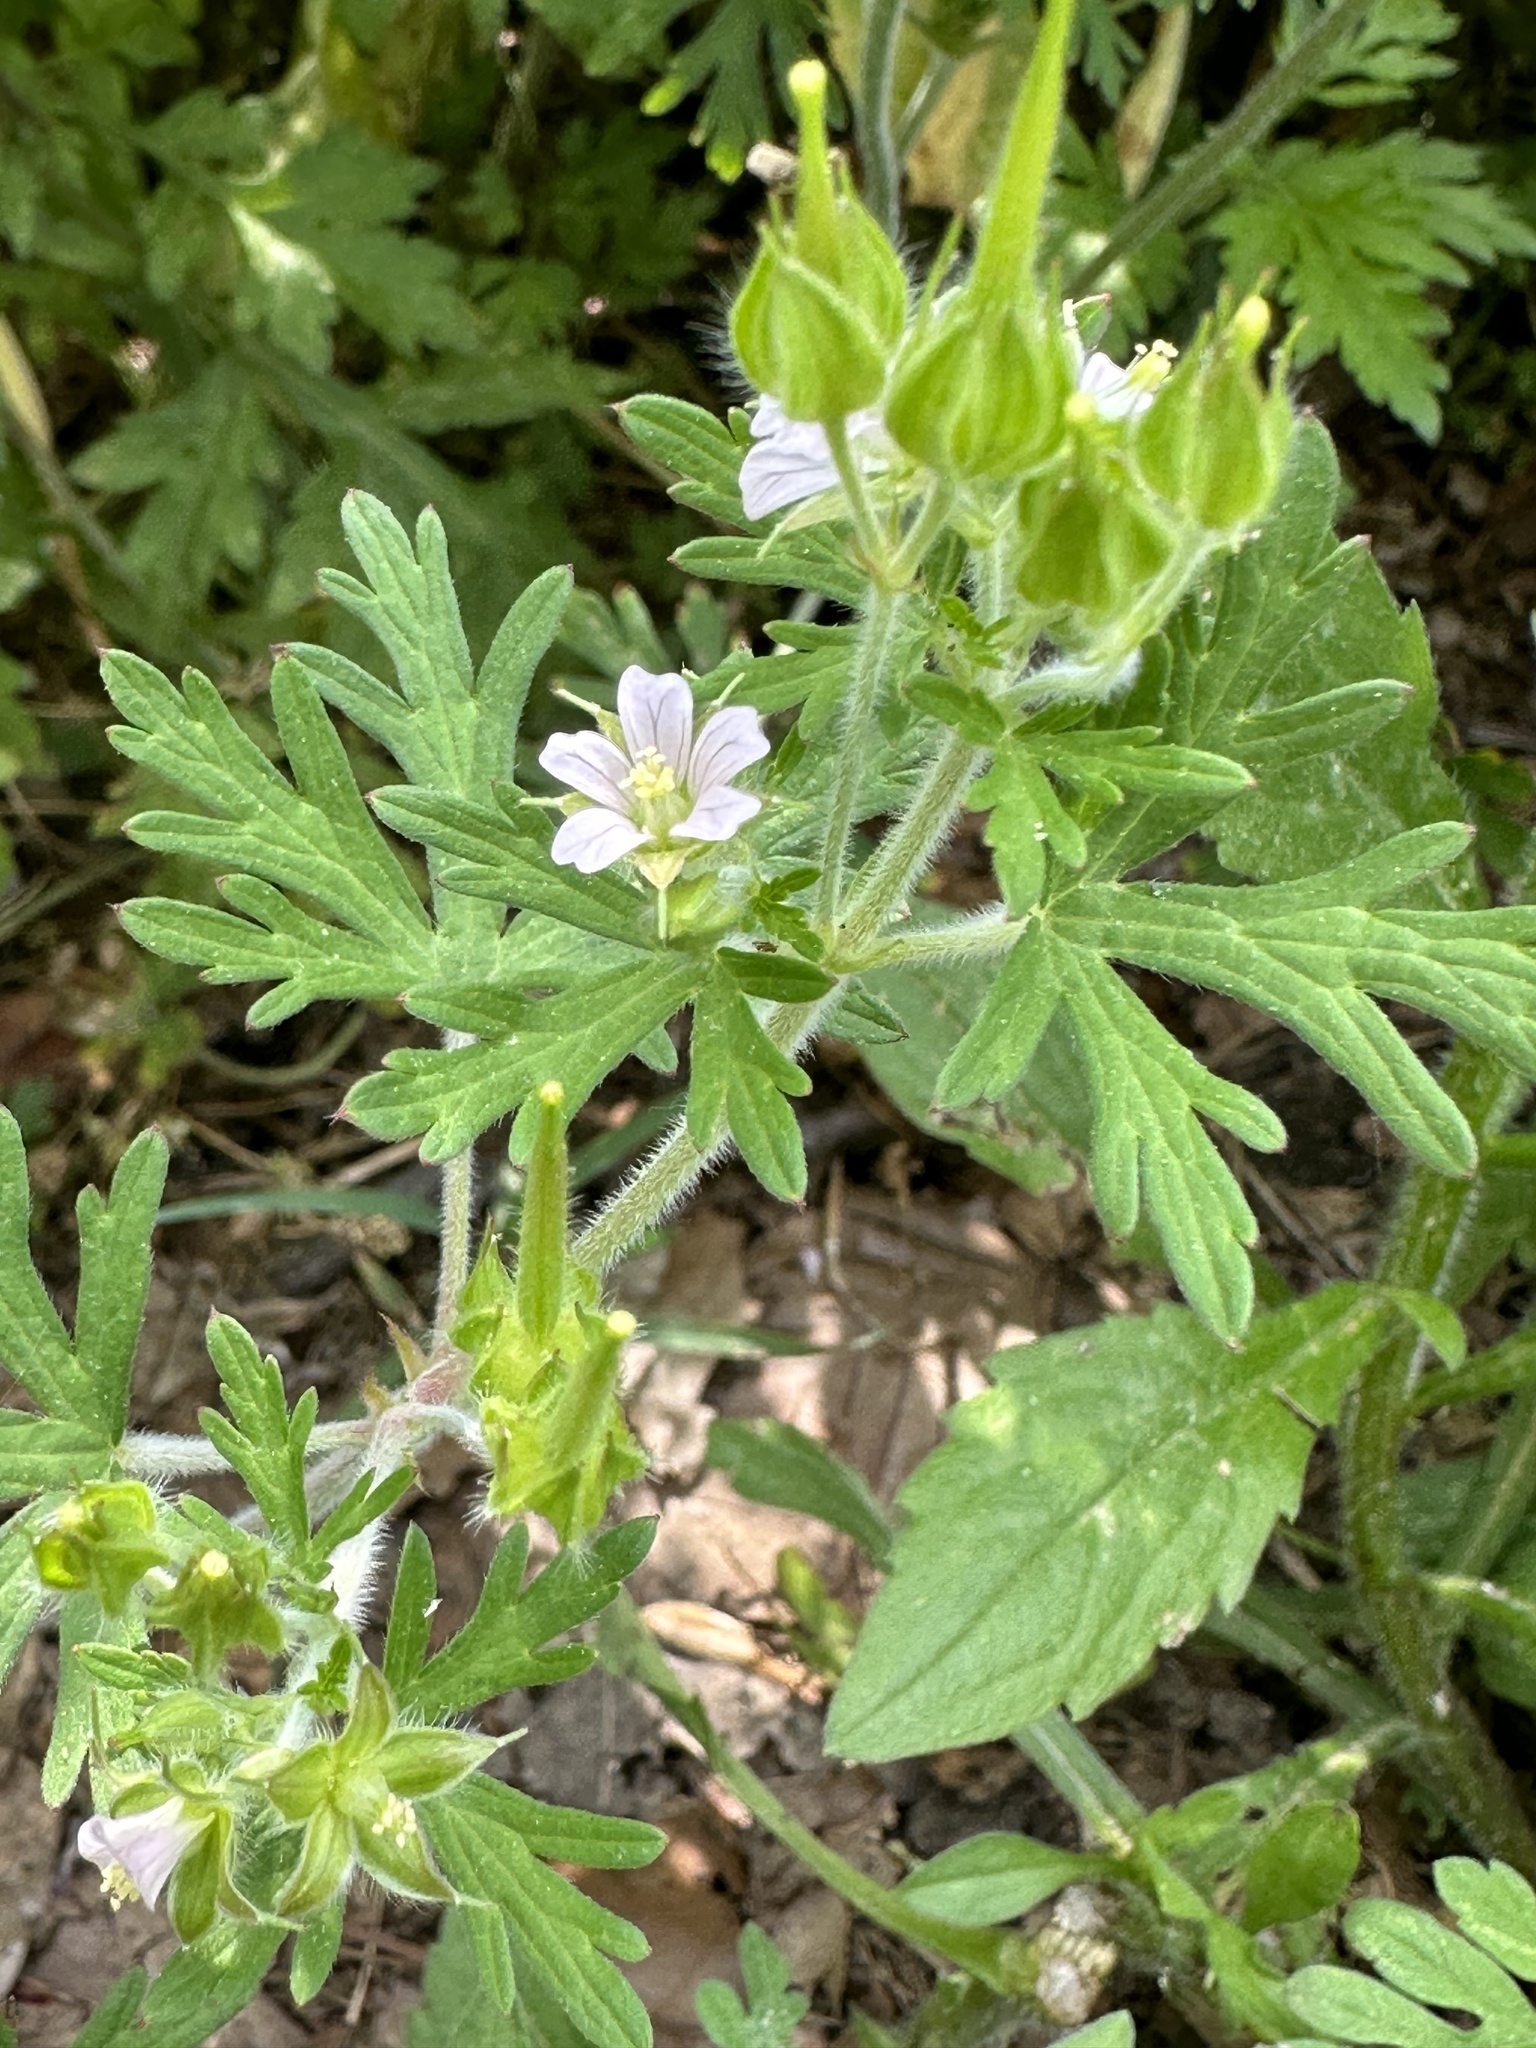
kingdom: Plantae
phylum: Tracheophyta
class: Magnoliopsida
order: Geraniales
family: Geraniaceae
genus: Geranium
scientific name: Geranium carolinianum
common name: Carolina crane's-bill
